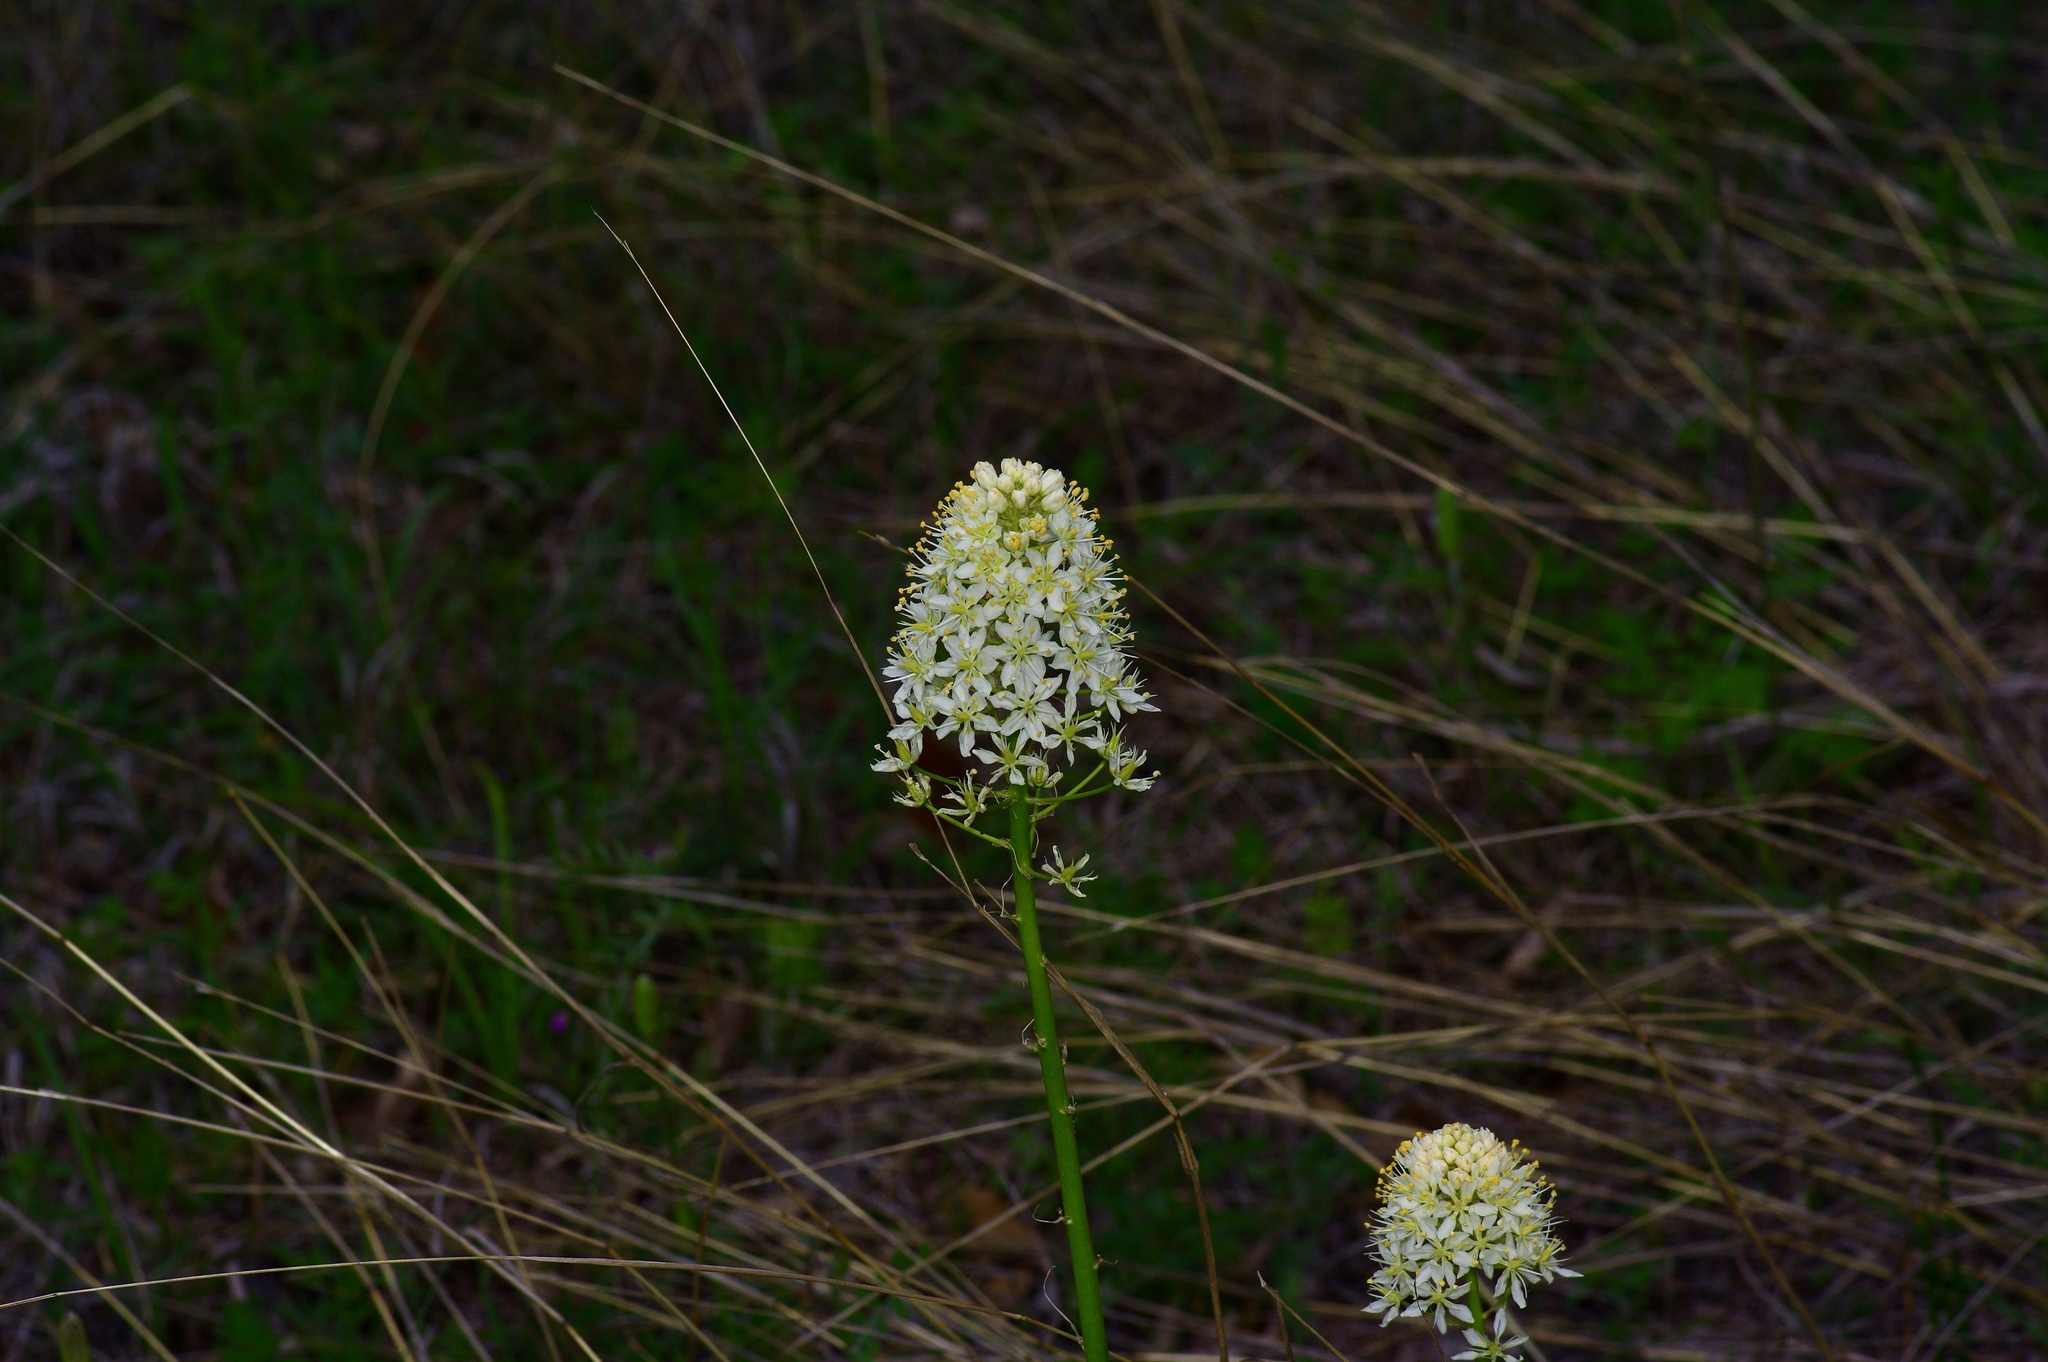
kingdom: Plantae
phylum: Tracheophyta
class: Liliopsida
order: Liliales
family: Melanthiaceae
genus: Toxicoscordion
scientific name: Toxicoscordion nuttallii
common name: Poison sego
